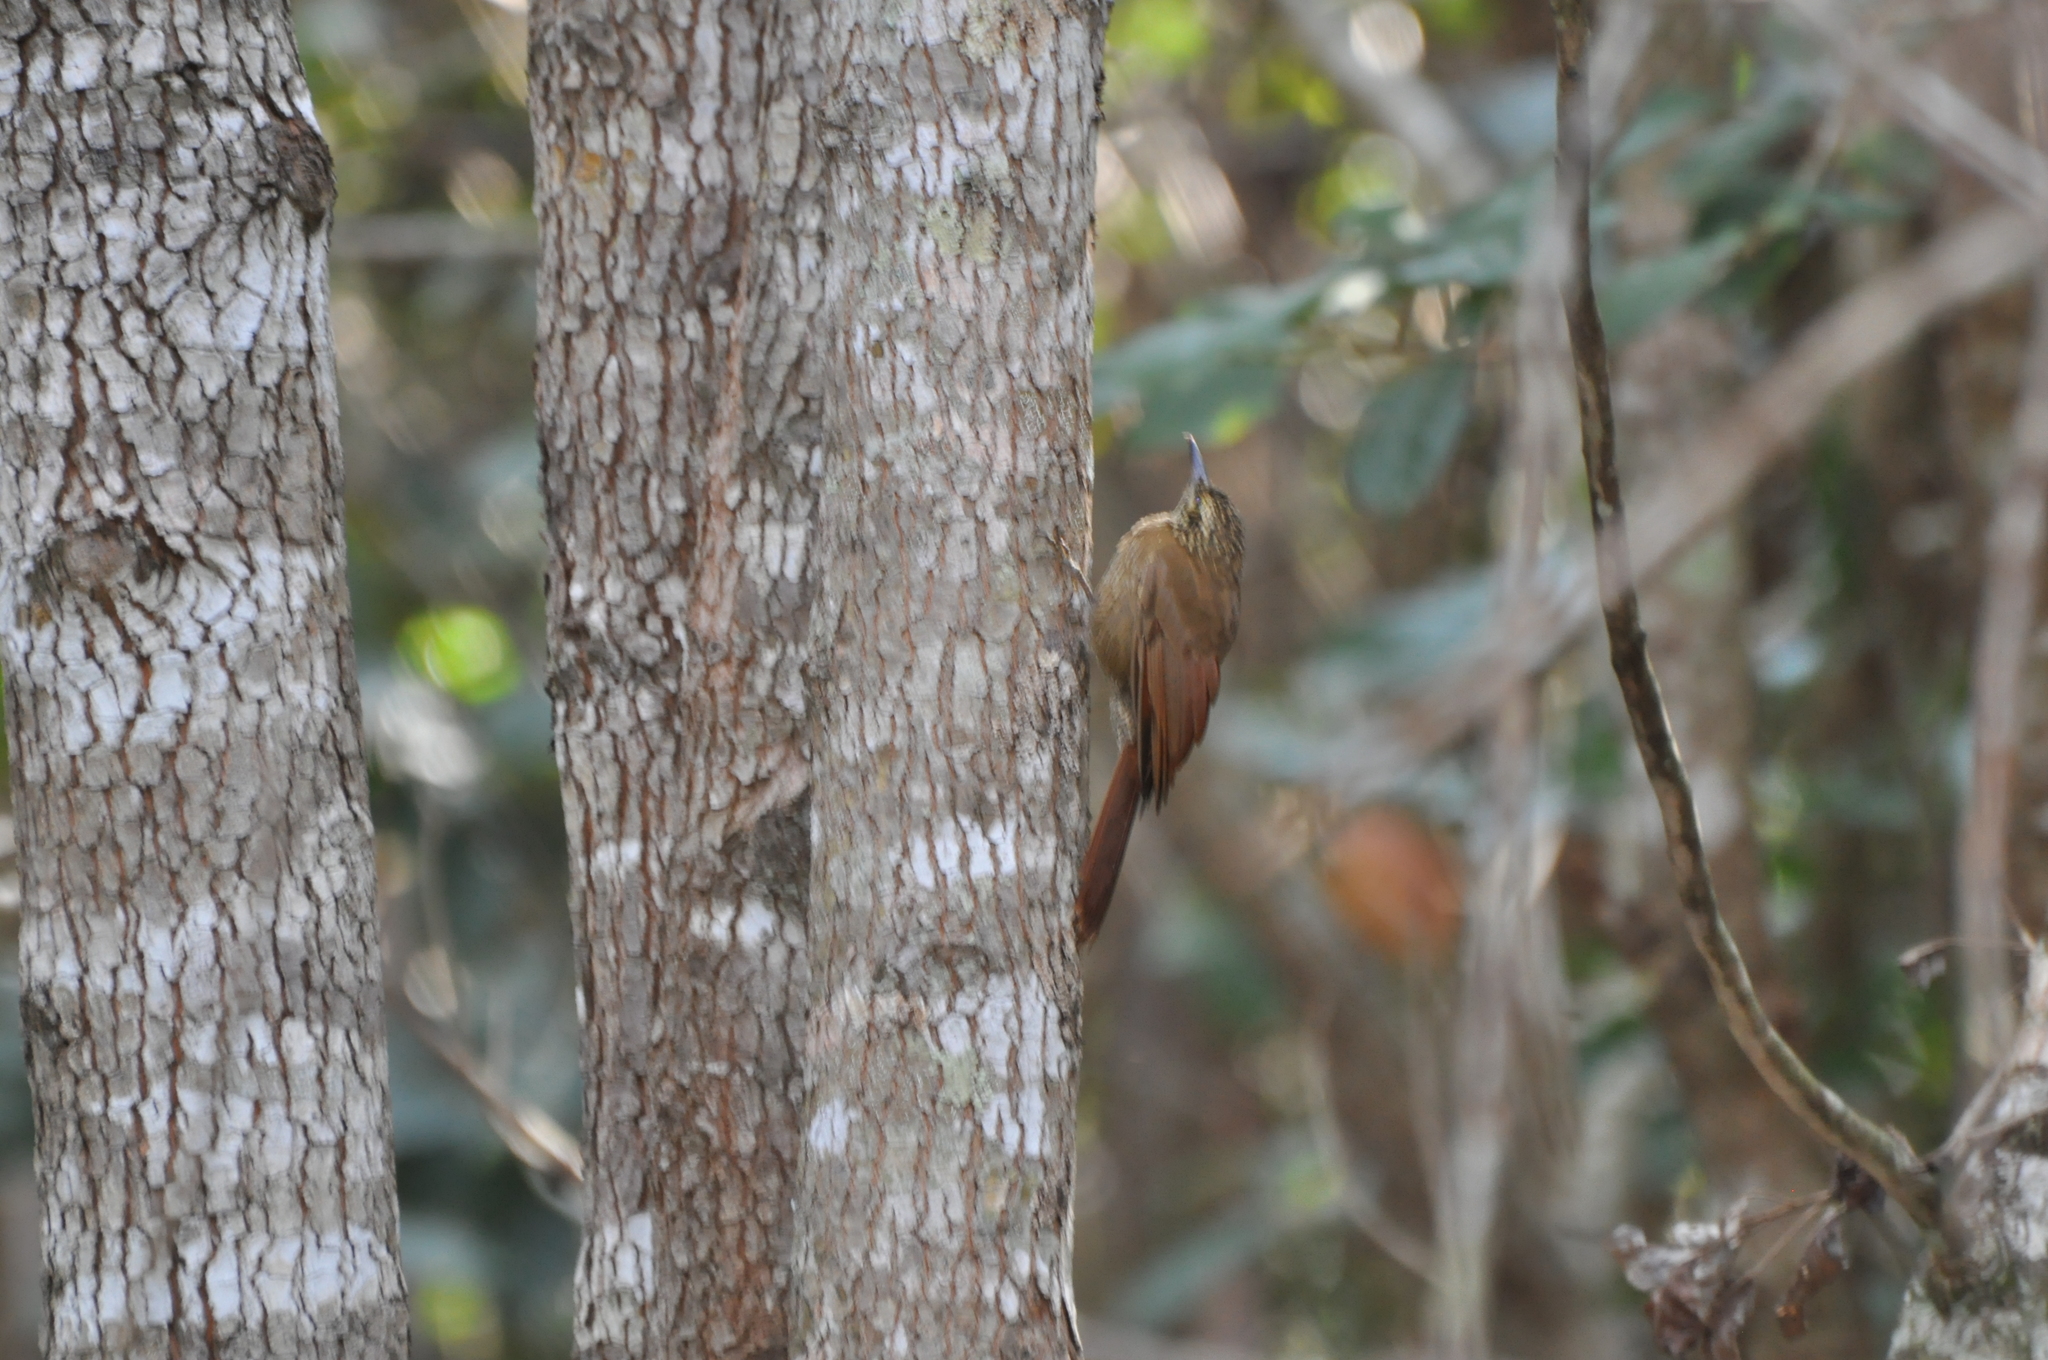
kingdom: Animalia
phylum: Chordata
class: Aves
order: Passeriformes
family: Furnariidae
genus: Dendrocolaptes
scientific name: Dendrocolaptes platyrostris
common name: Planalto woodcreeper
